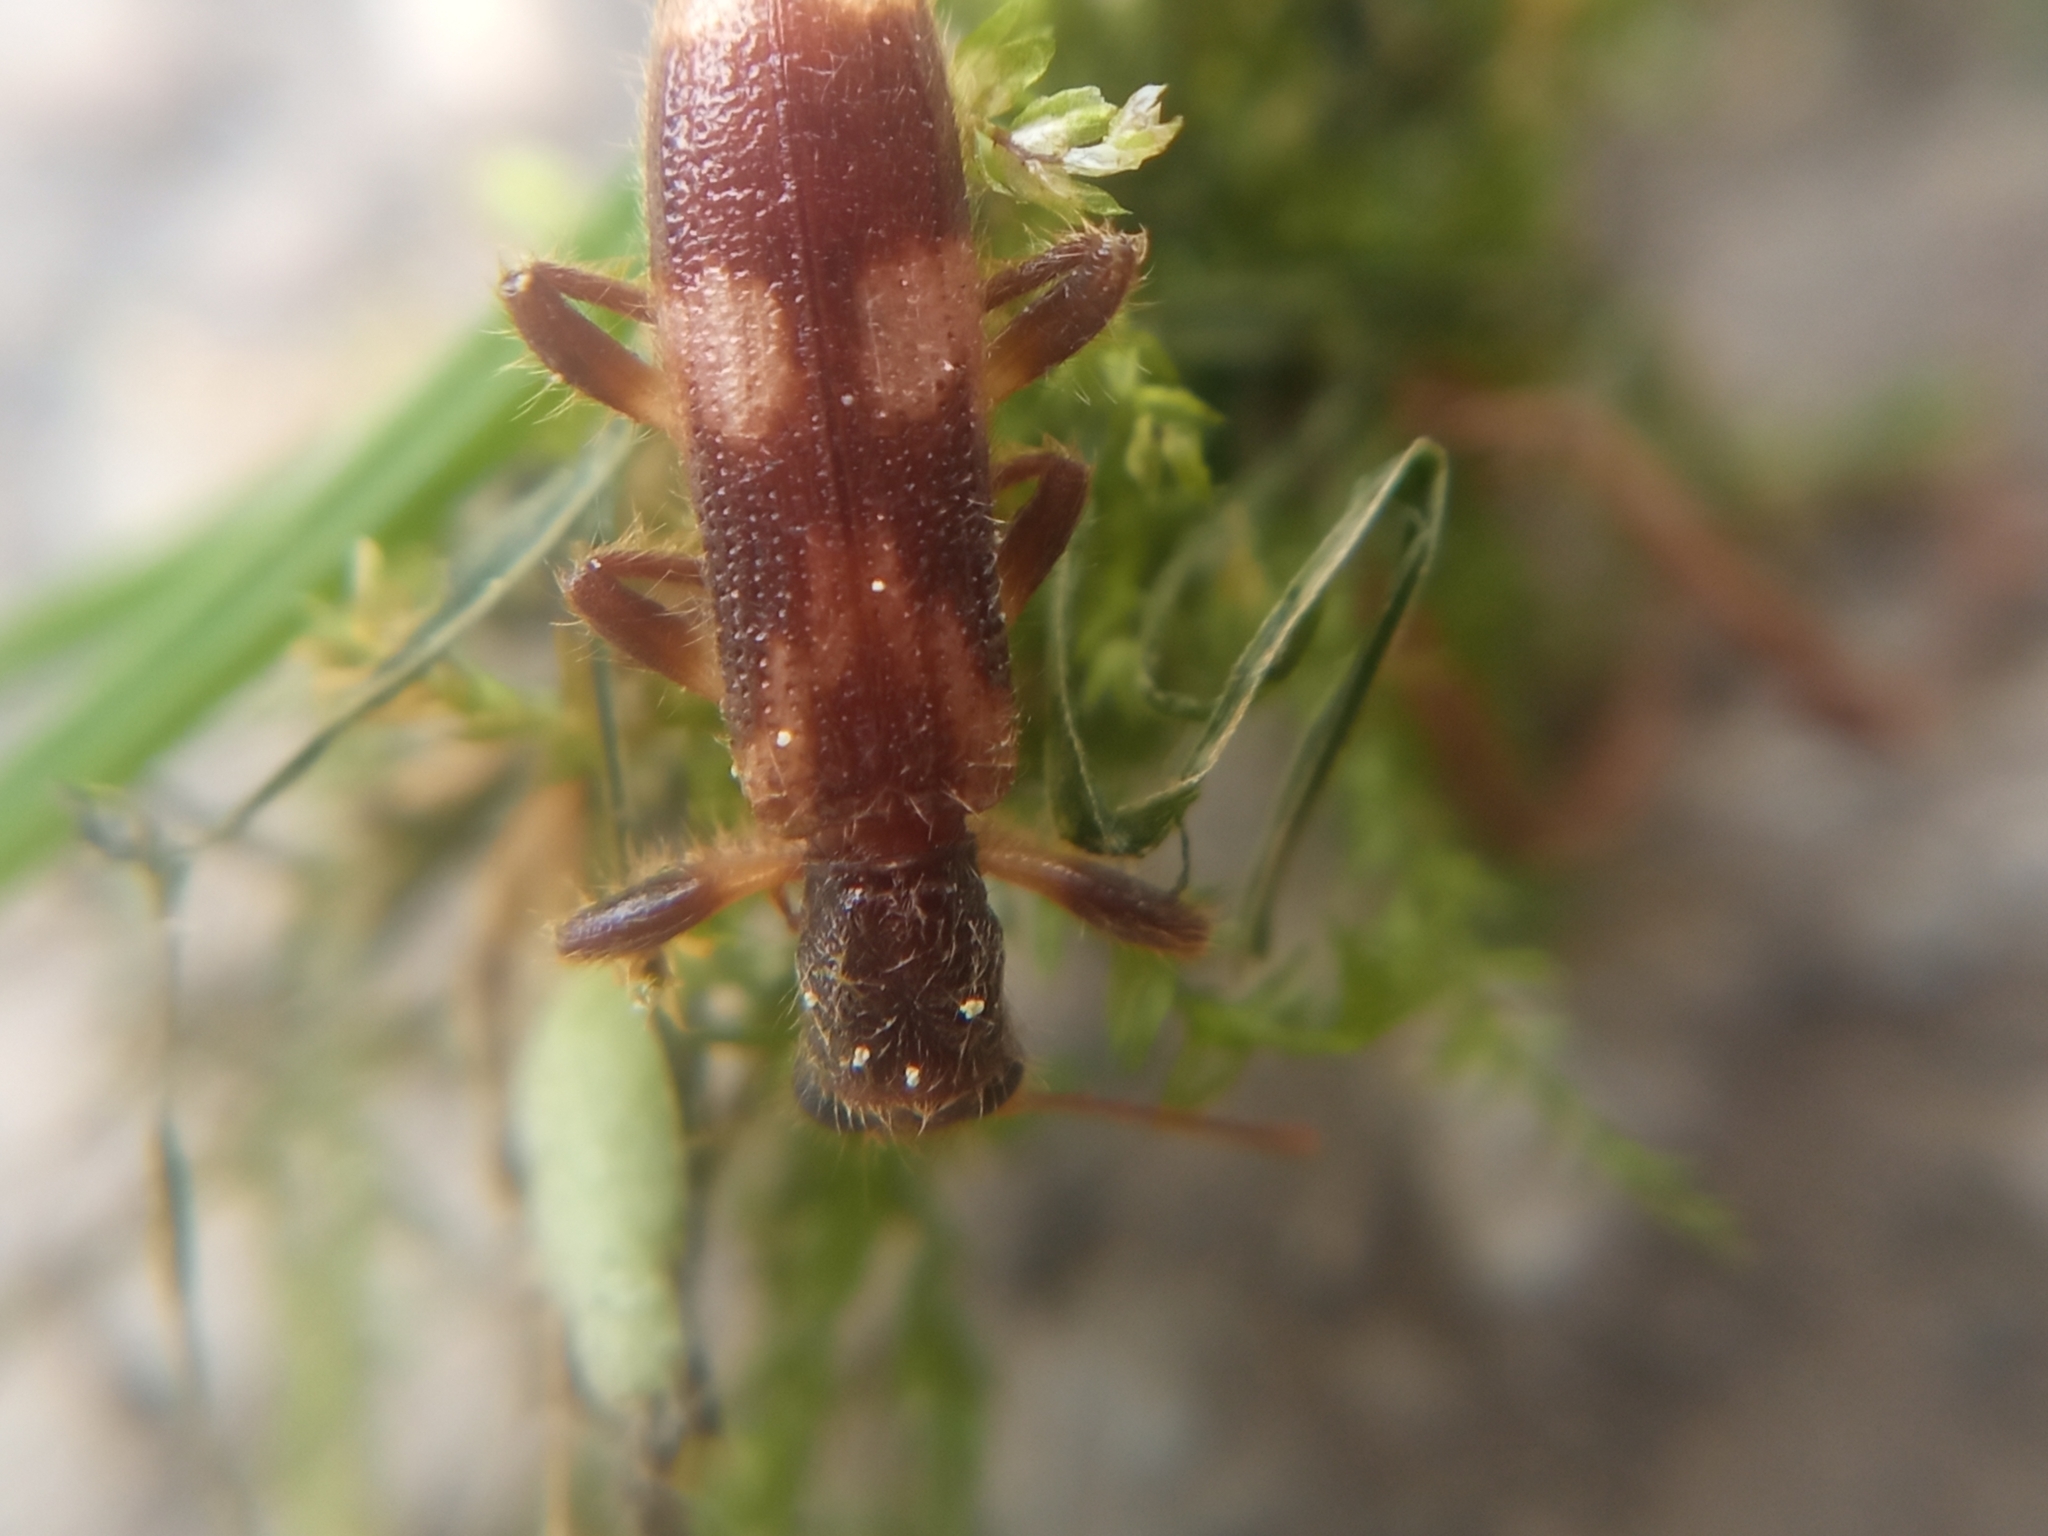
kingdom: Animalia
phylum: Arthropoda
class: Insecta
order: Coleoptera
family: Cleridae
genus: Opilo
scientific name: Opilo mollis
